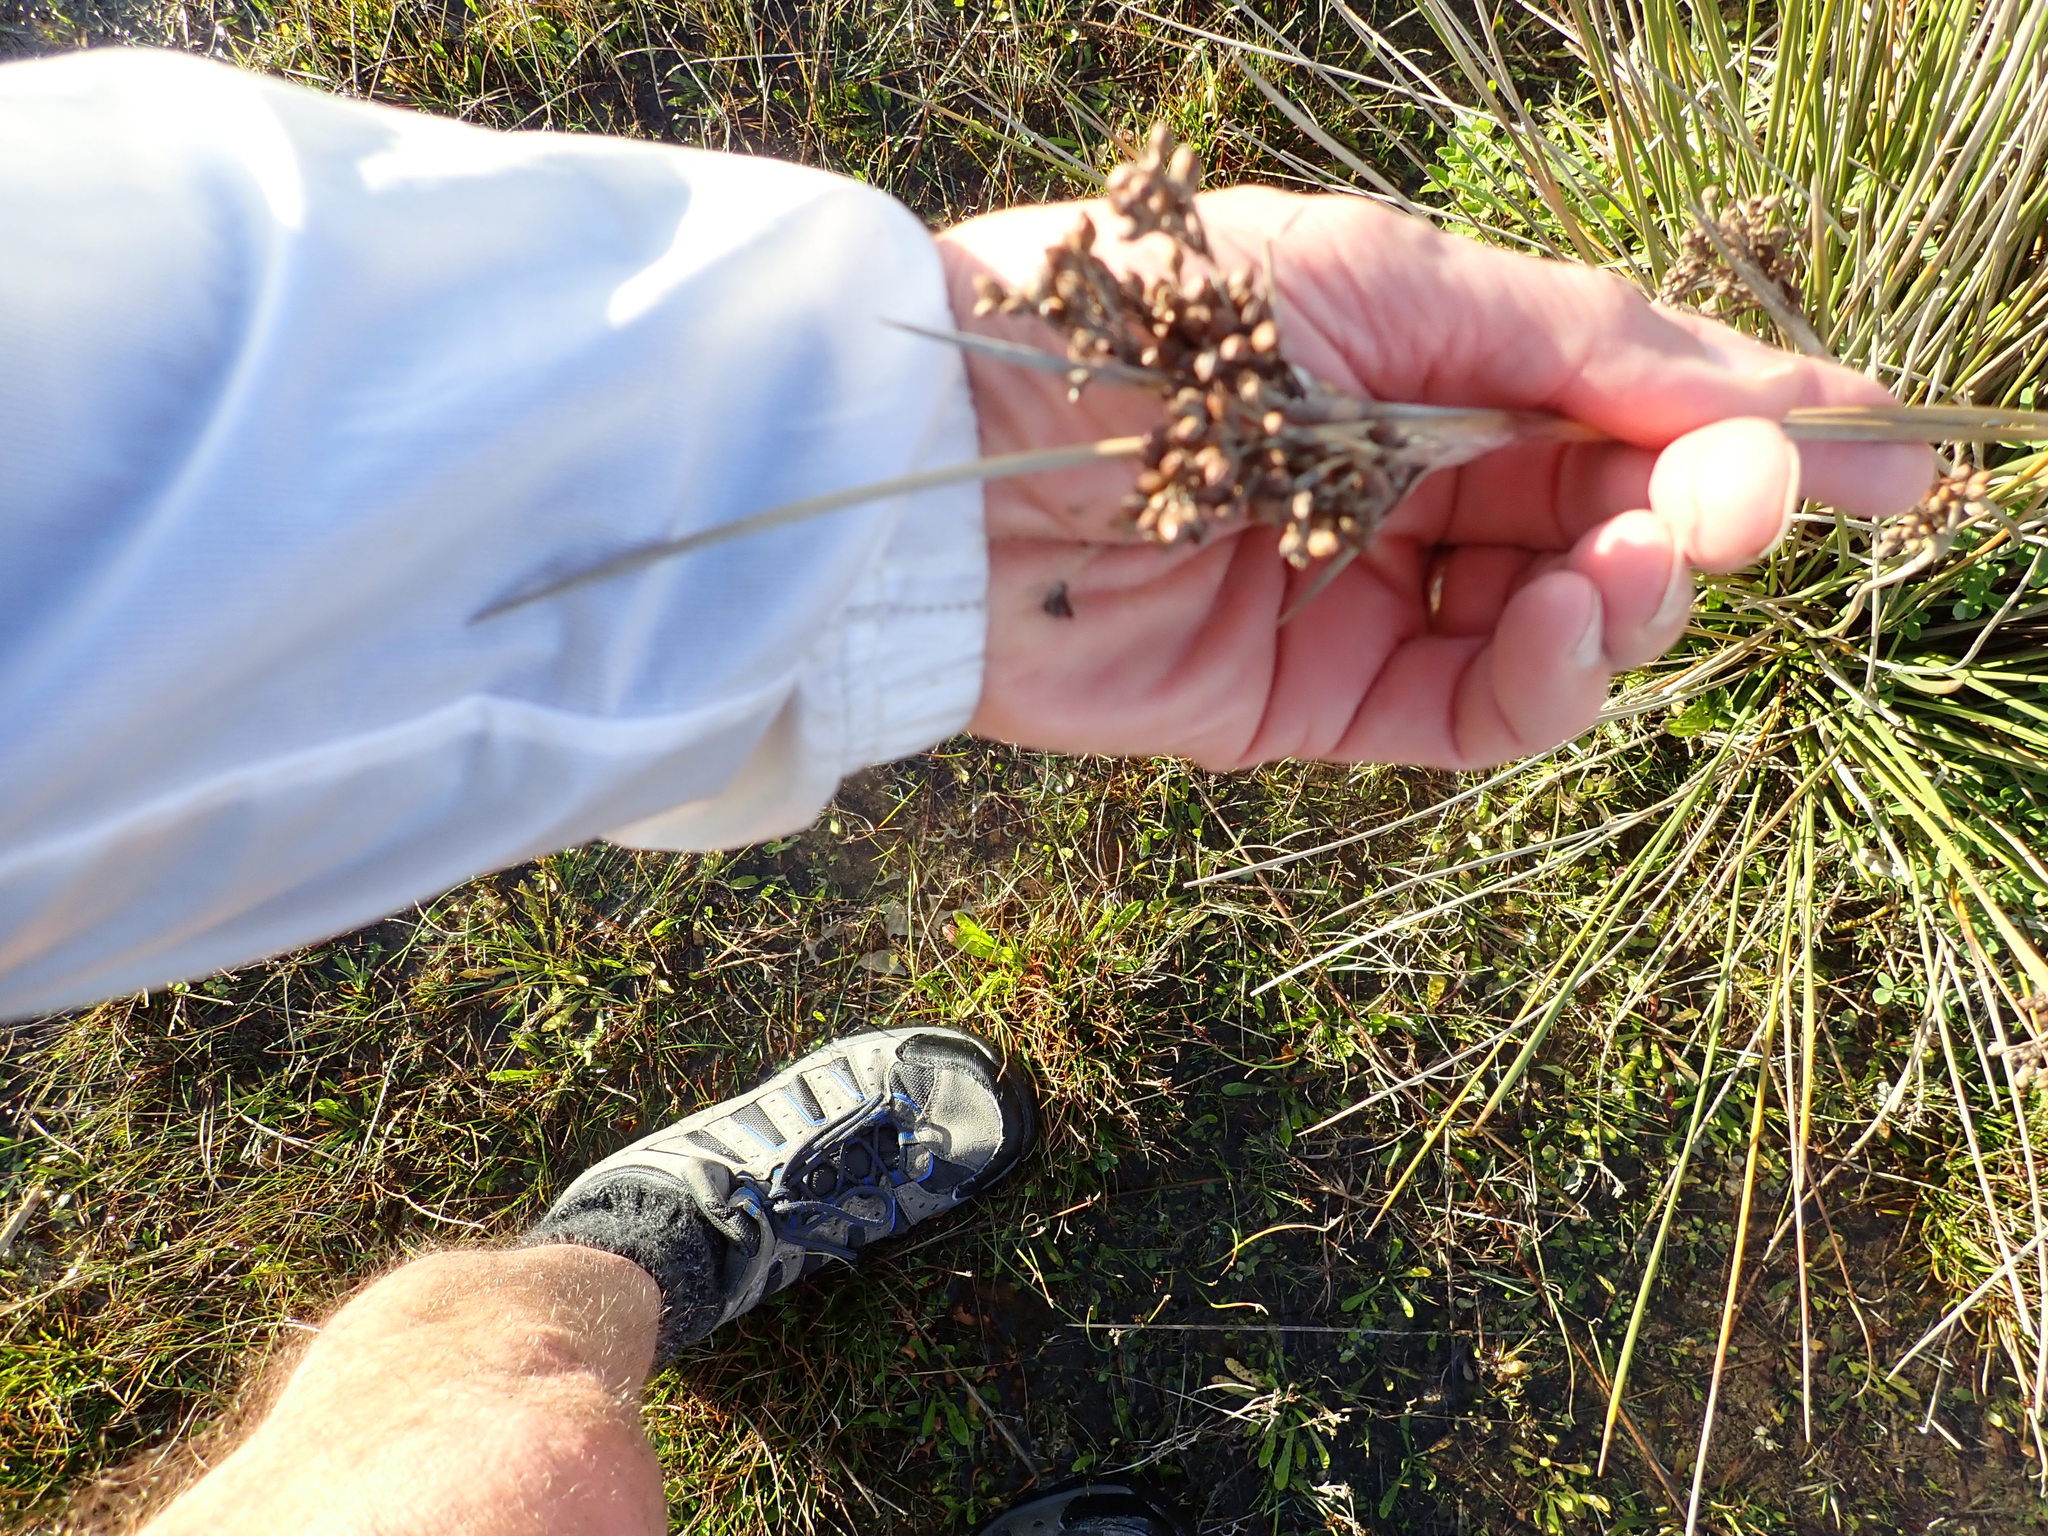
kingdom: Plantae
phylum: Tracheophyta
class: Liliopsida
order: Poales
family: Juncaceae
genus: Juncus
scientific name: Juncus acutus
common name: Sharp rush
